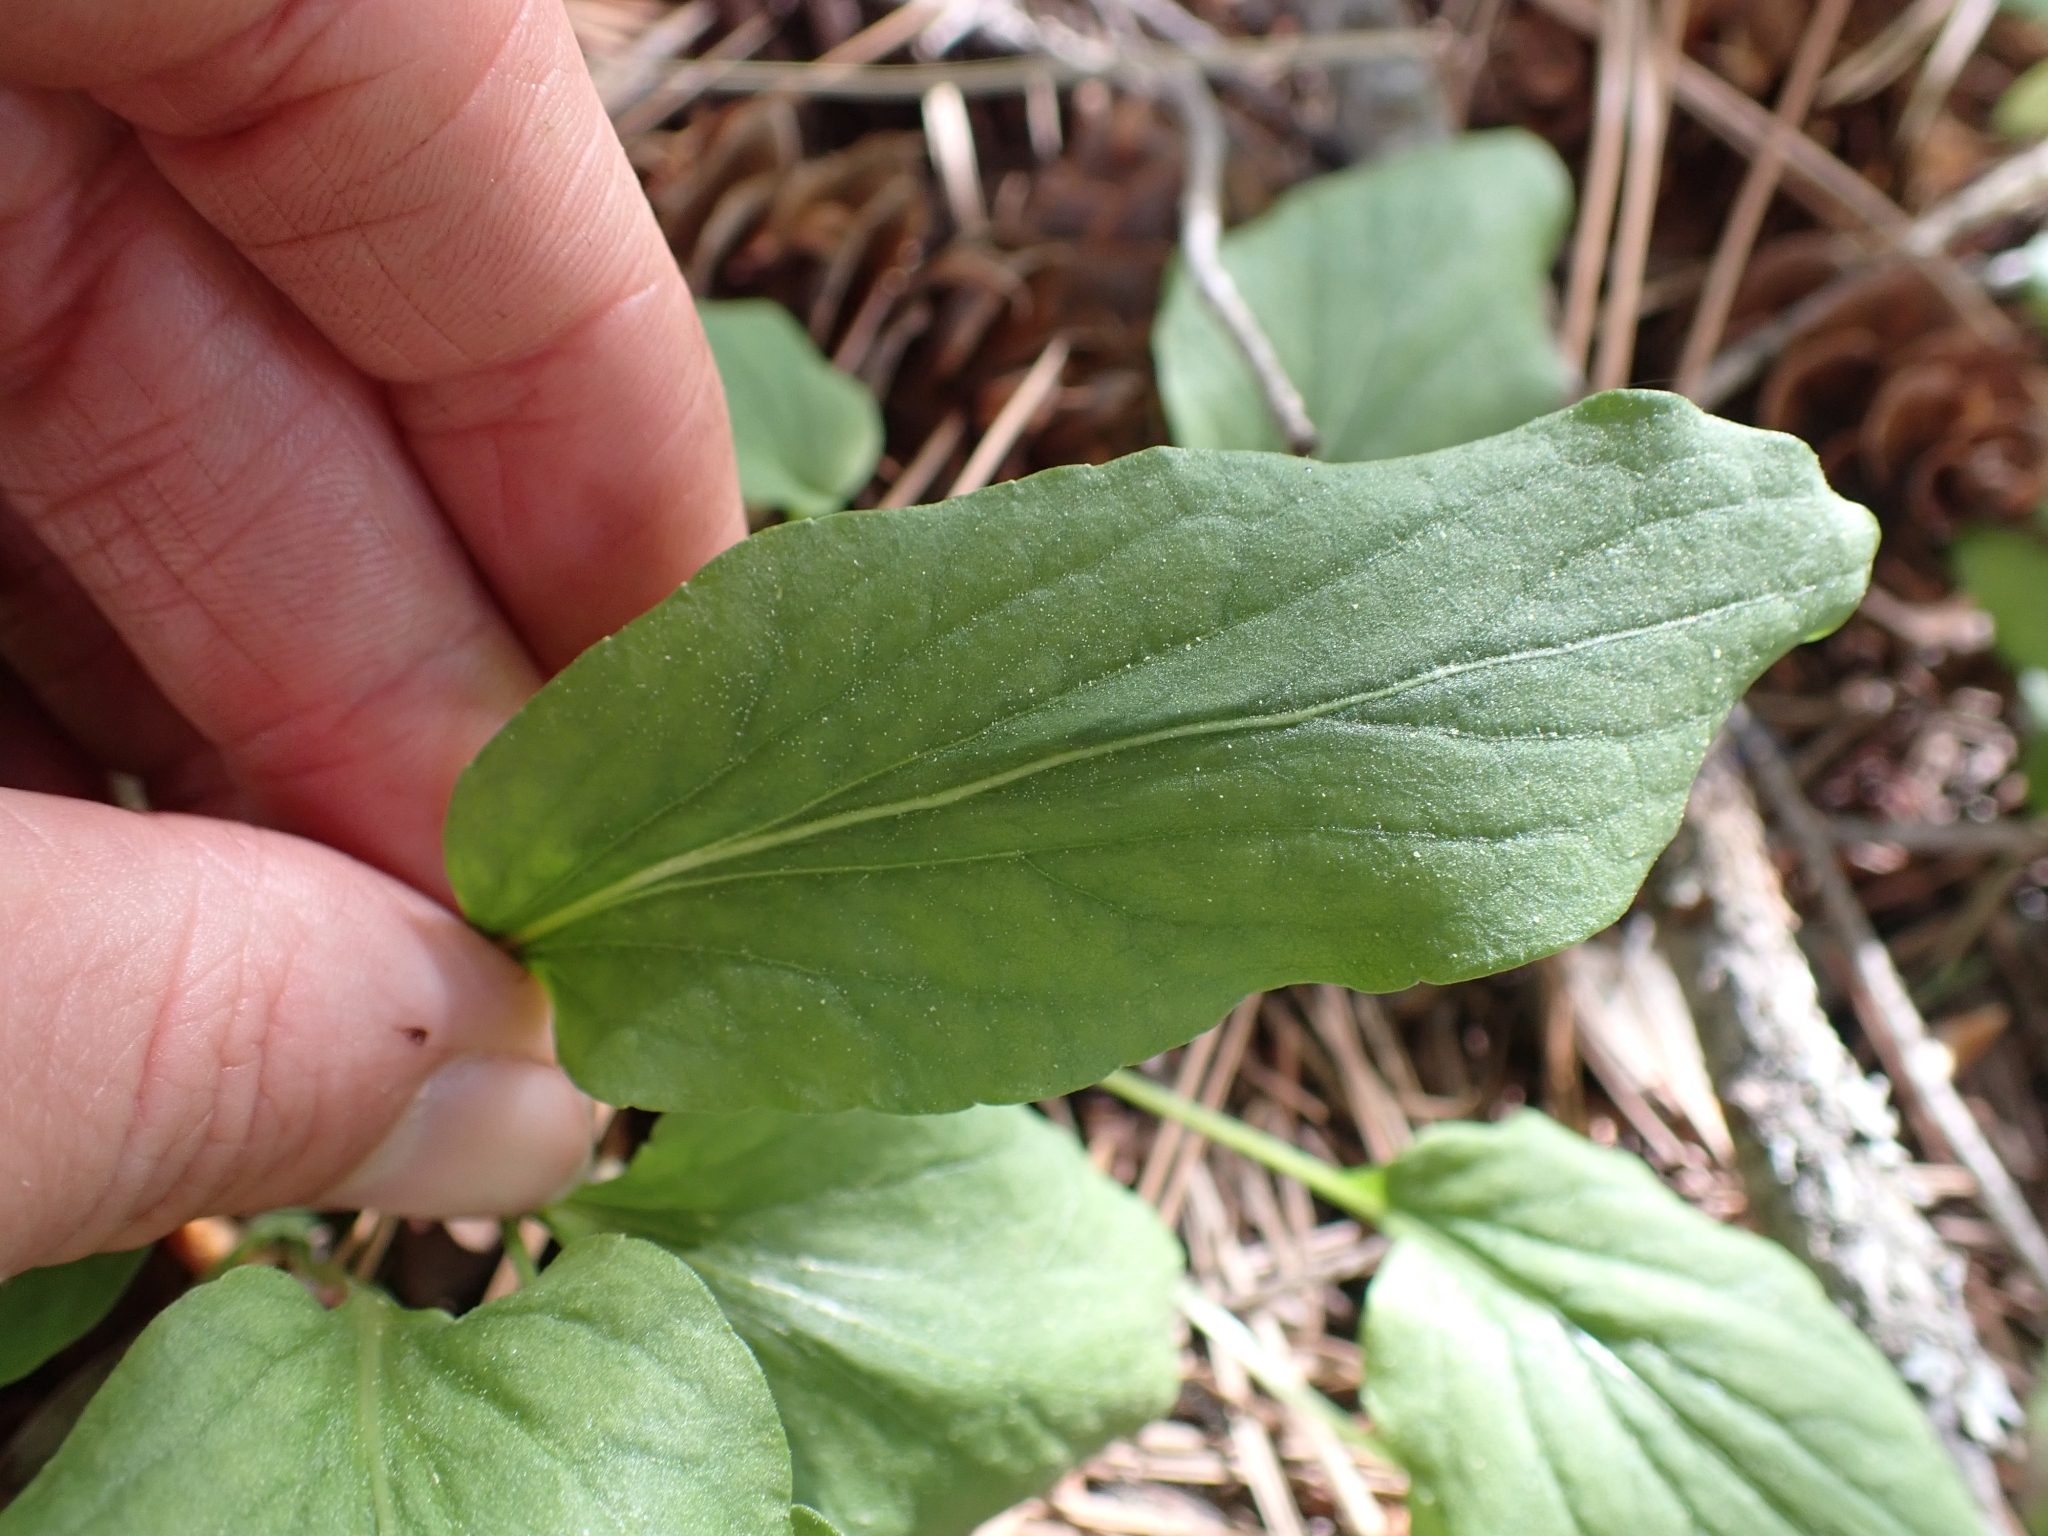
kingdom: Plantae
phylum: Tracheophyta
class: Magnoliopsida
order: Malpighiales
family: Violaceae
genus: Viola
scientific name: Viola vallicola
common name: Valley violet
